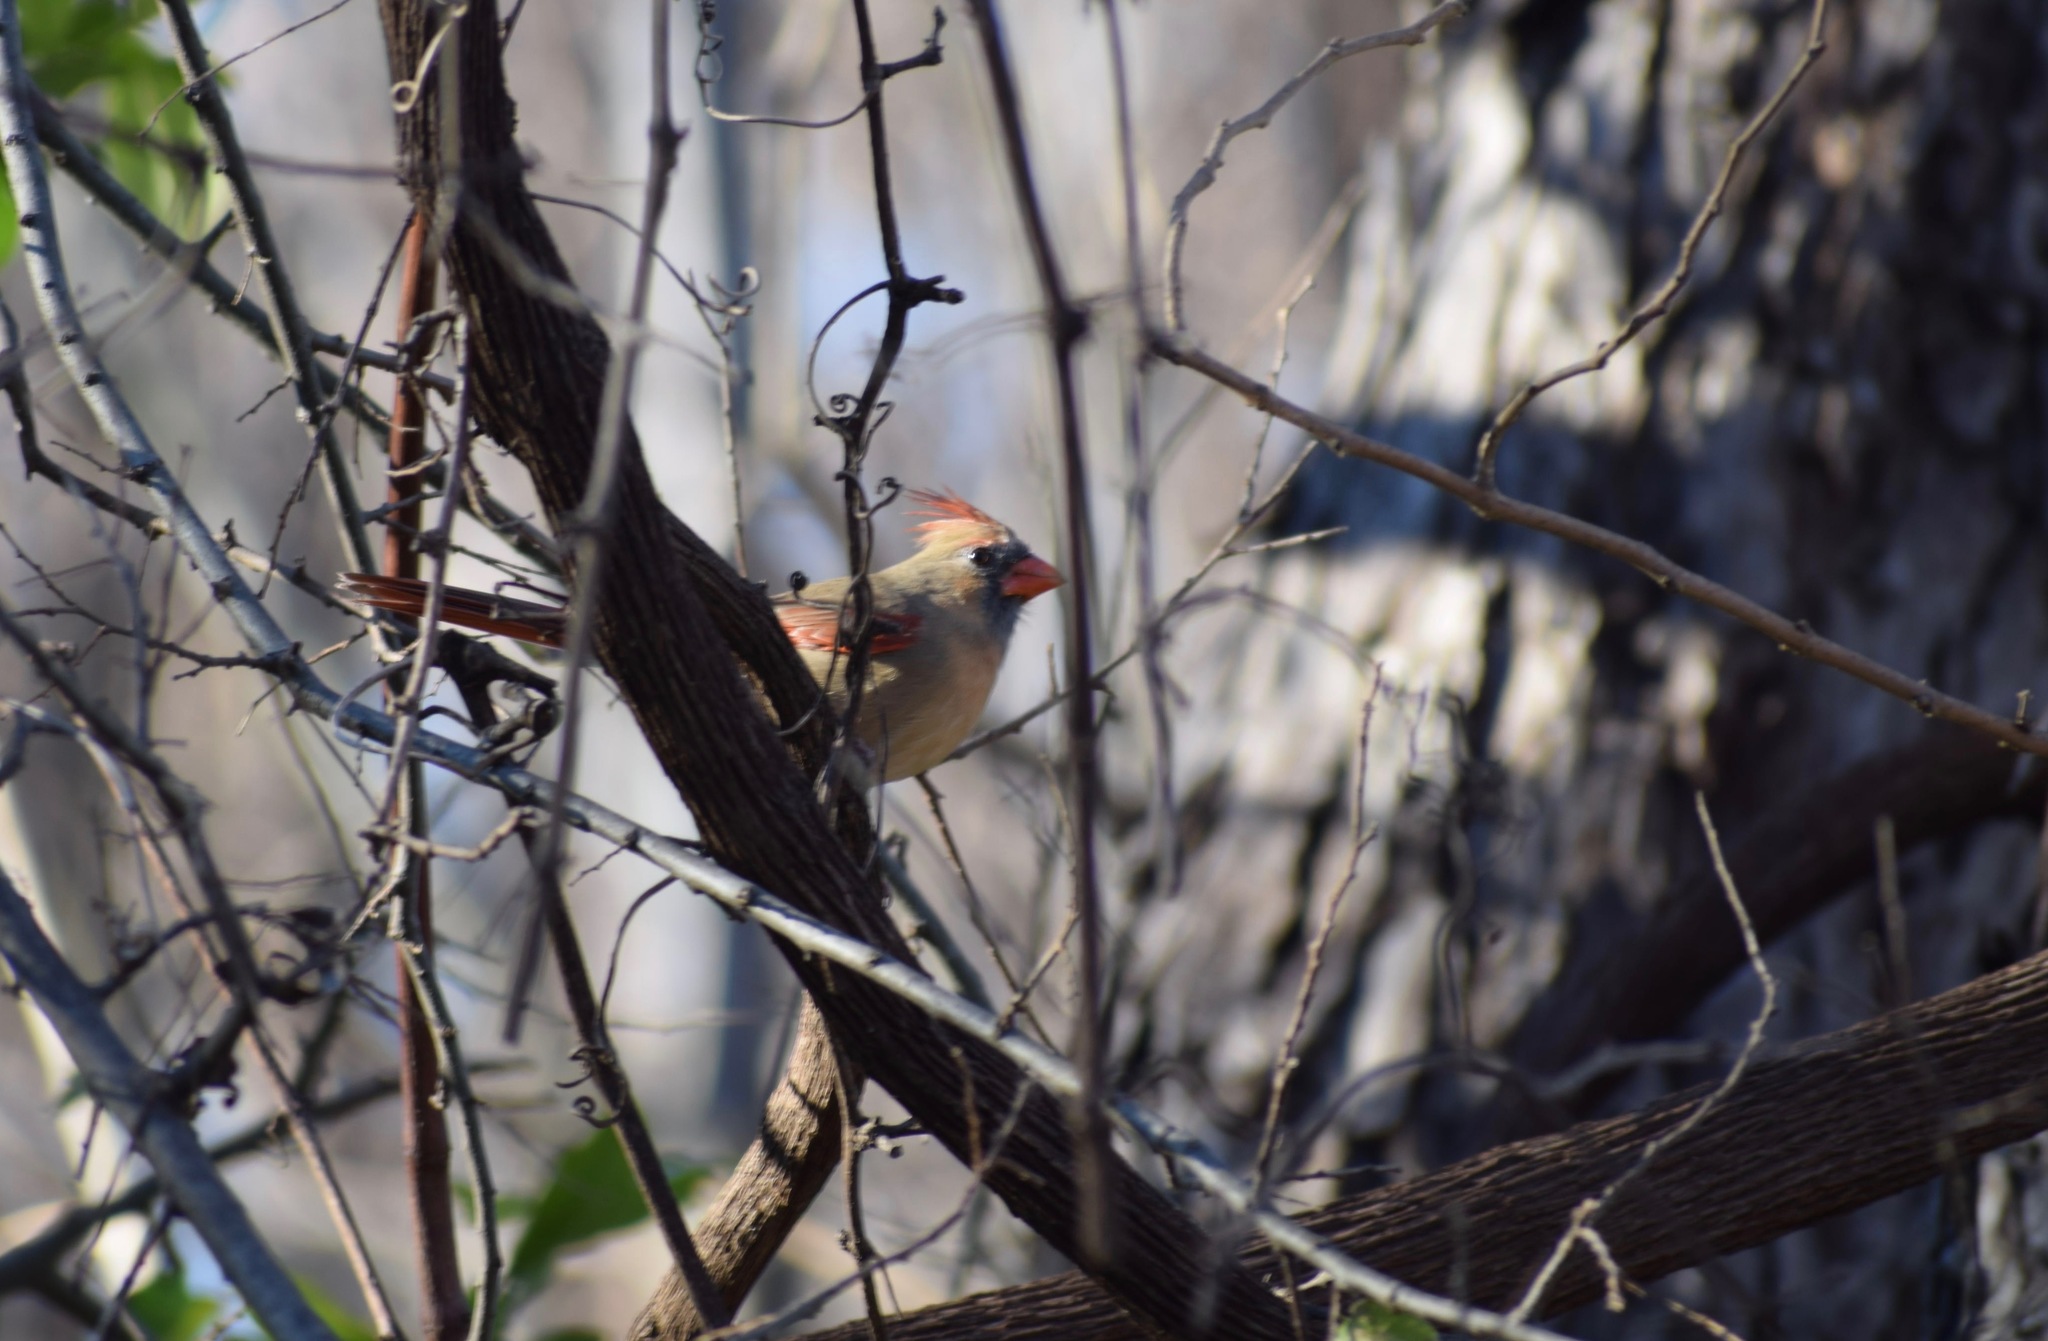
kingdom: Animalia
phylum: Chordata
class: Aves
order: Passeriformes
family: Cardinalidae
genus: Cardinalis
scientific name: Cardinalis cardinalis
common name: Northern cardinal
